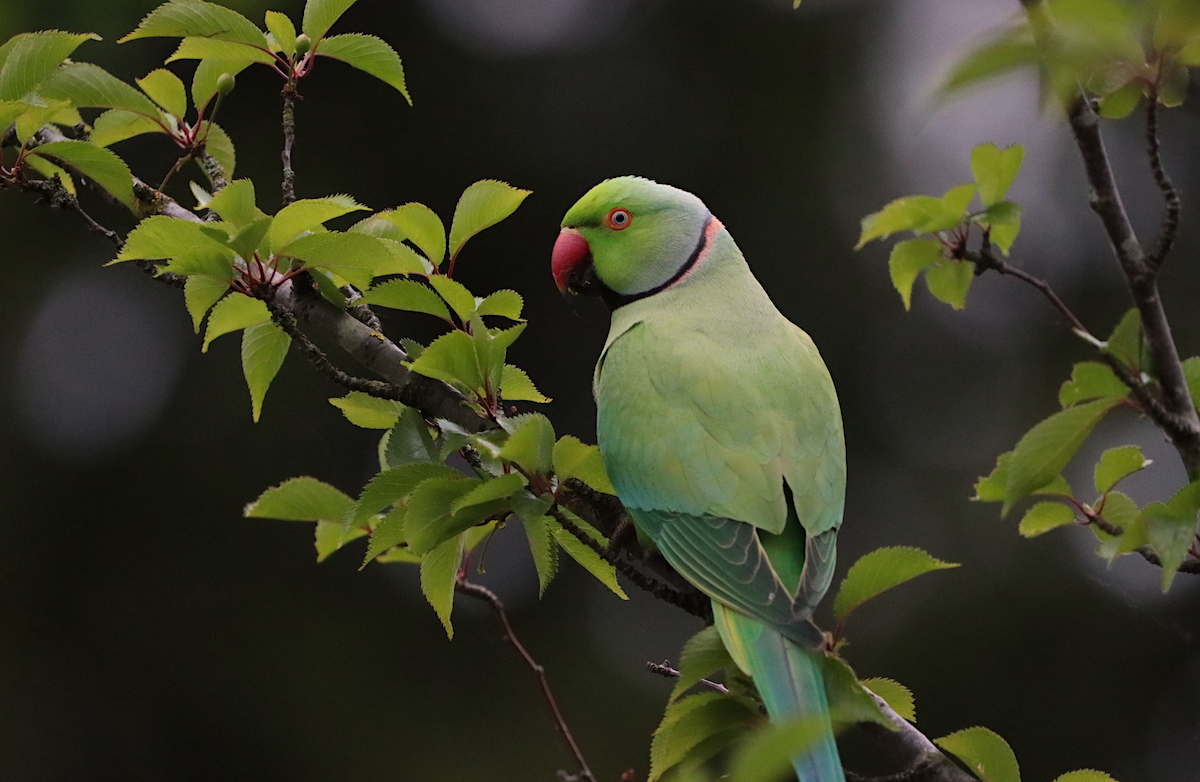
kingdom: Animalia
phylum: Chordata
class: Aves
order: Psittaciformes
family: Psittacidae
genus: Psittacula
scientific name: Psittacula krameri
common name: Rose-ringed parakeet
